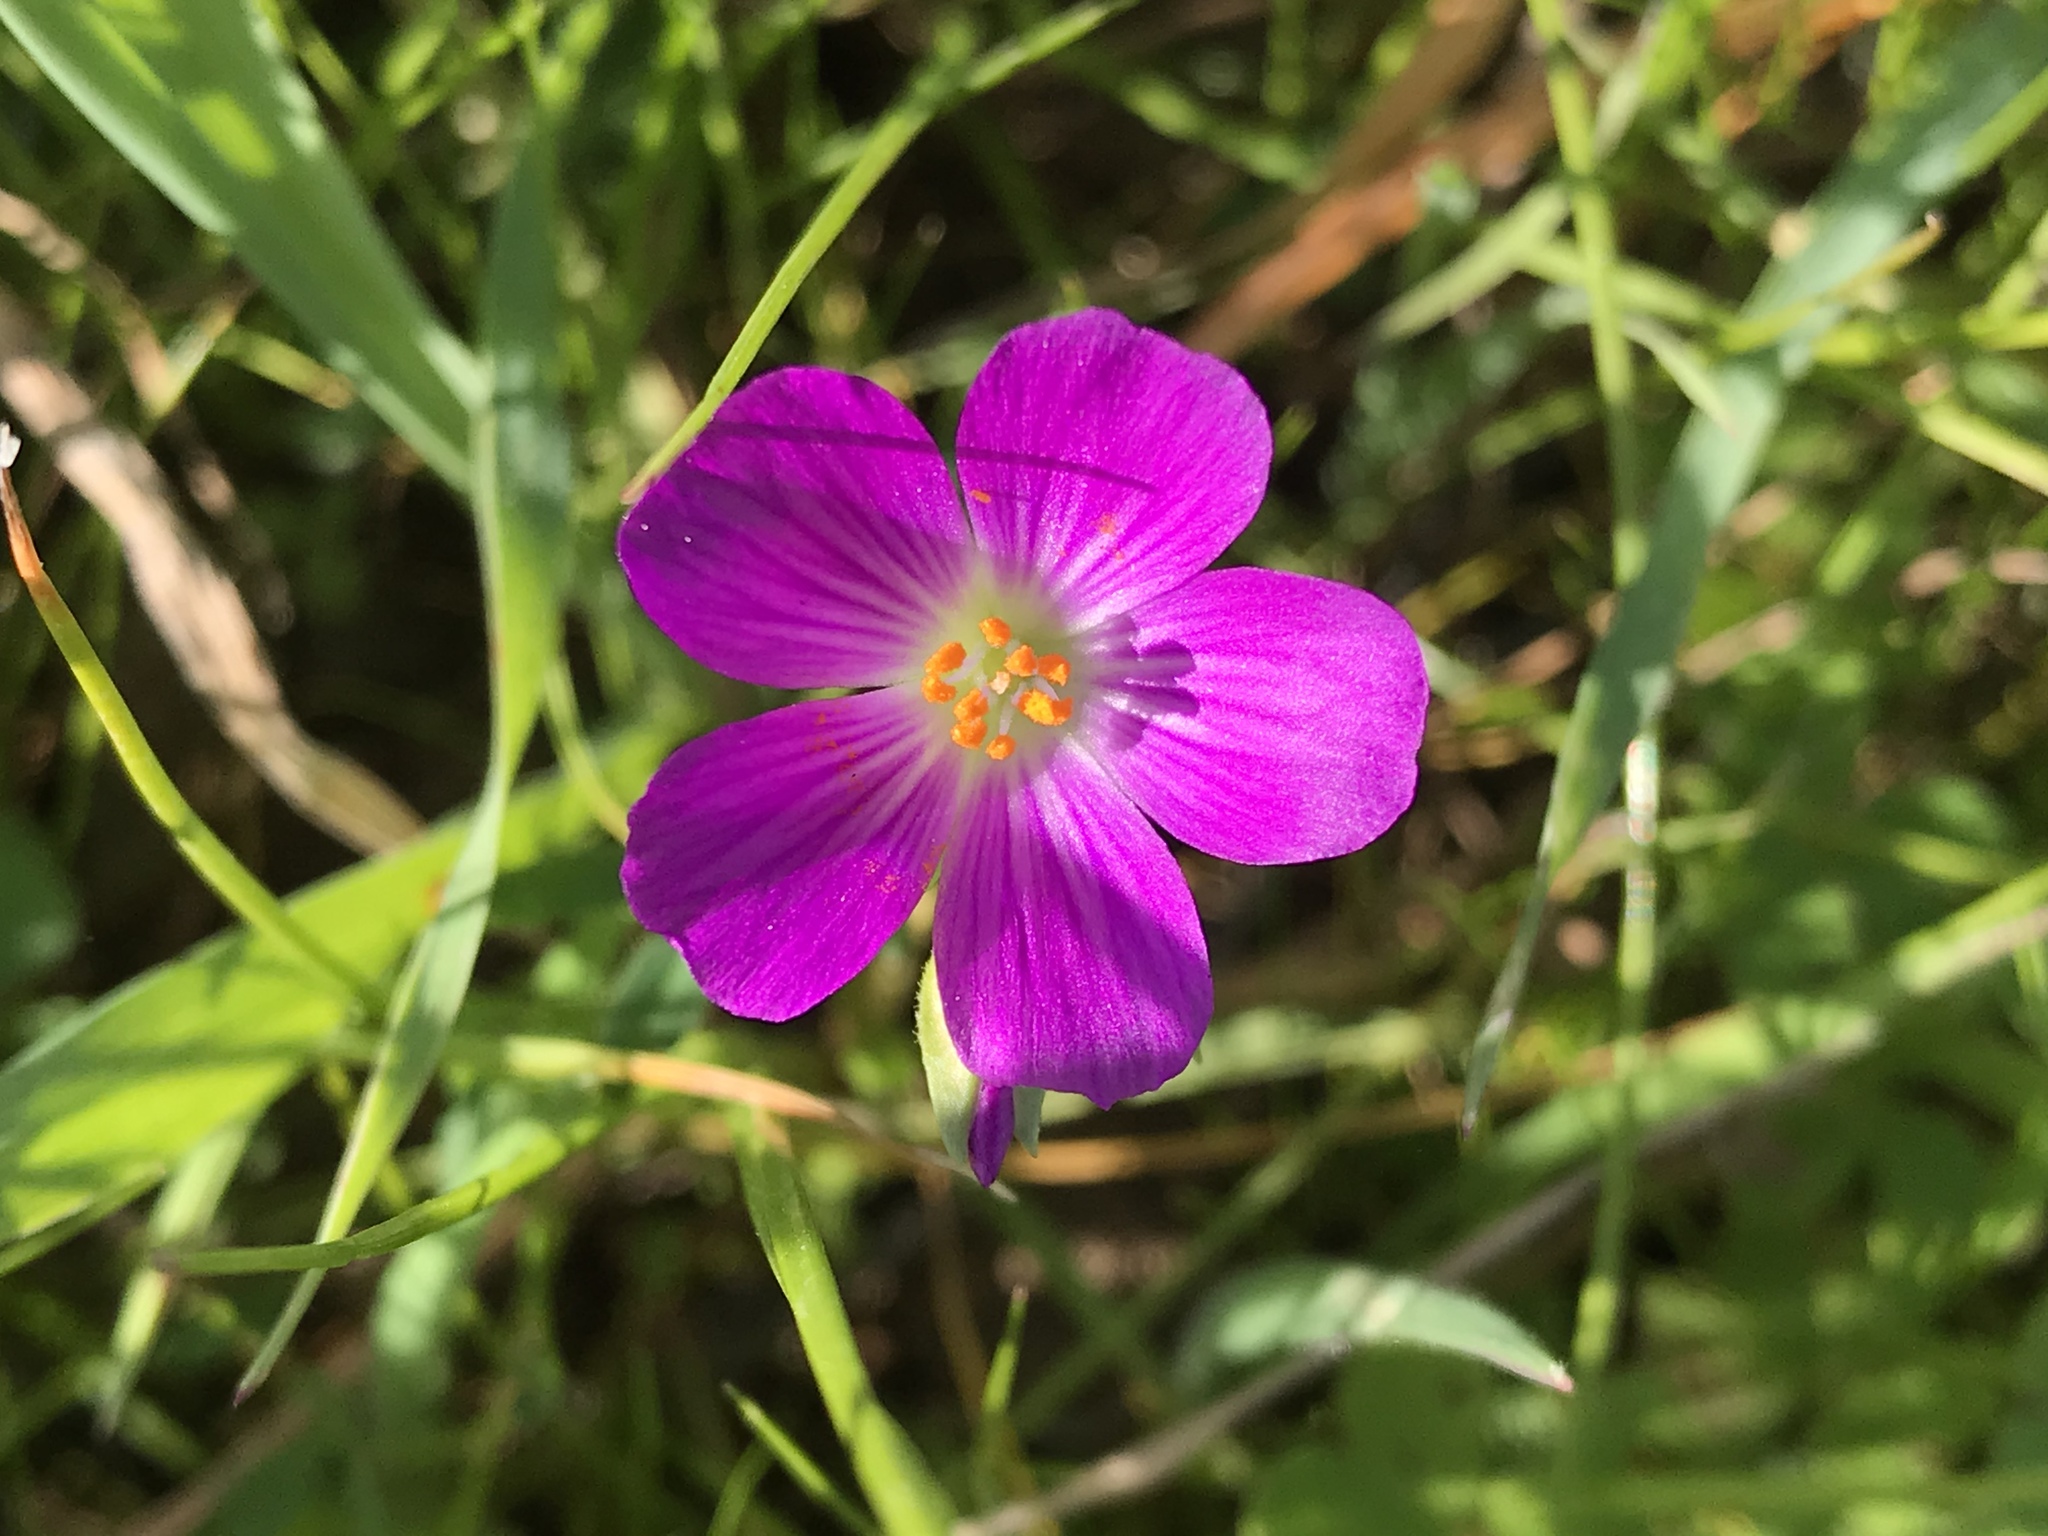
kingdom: Plantae
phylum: Tracheophyta
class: Magnoliopsida
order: Caryophyllales
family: Montiaceae
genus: Calandrinia
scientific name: Calandrinia menziesii
